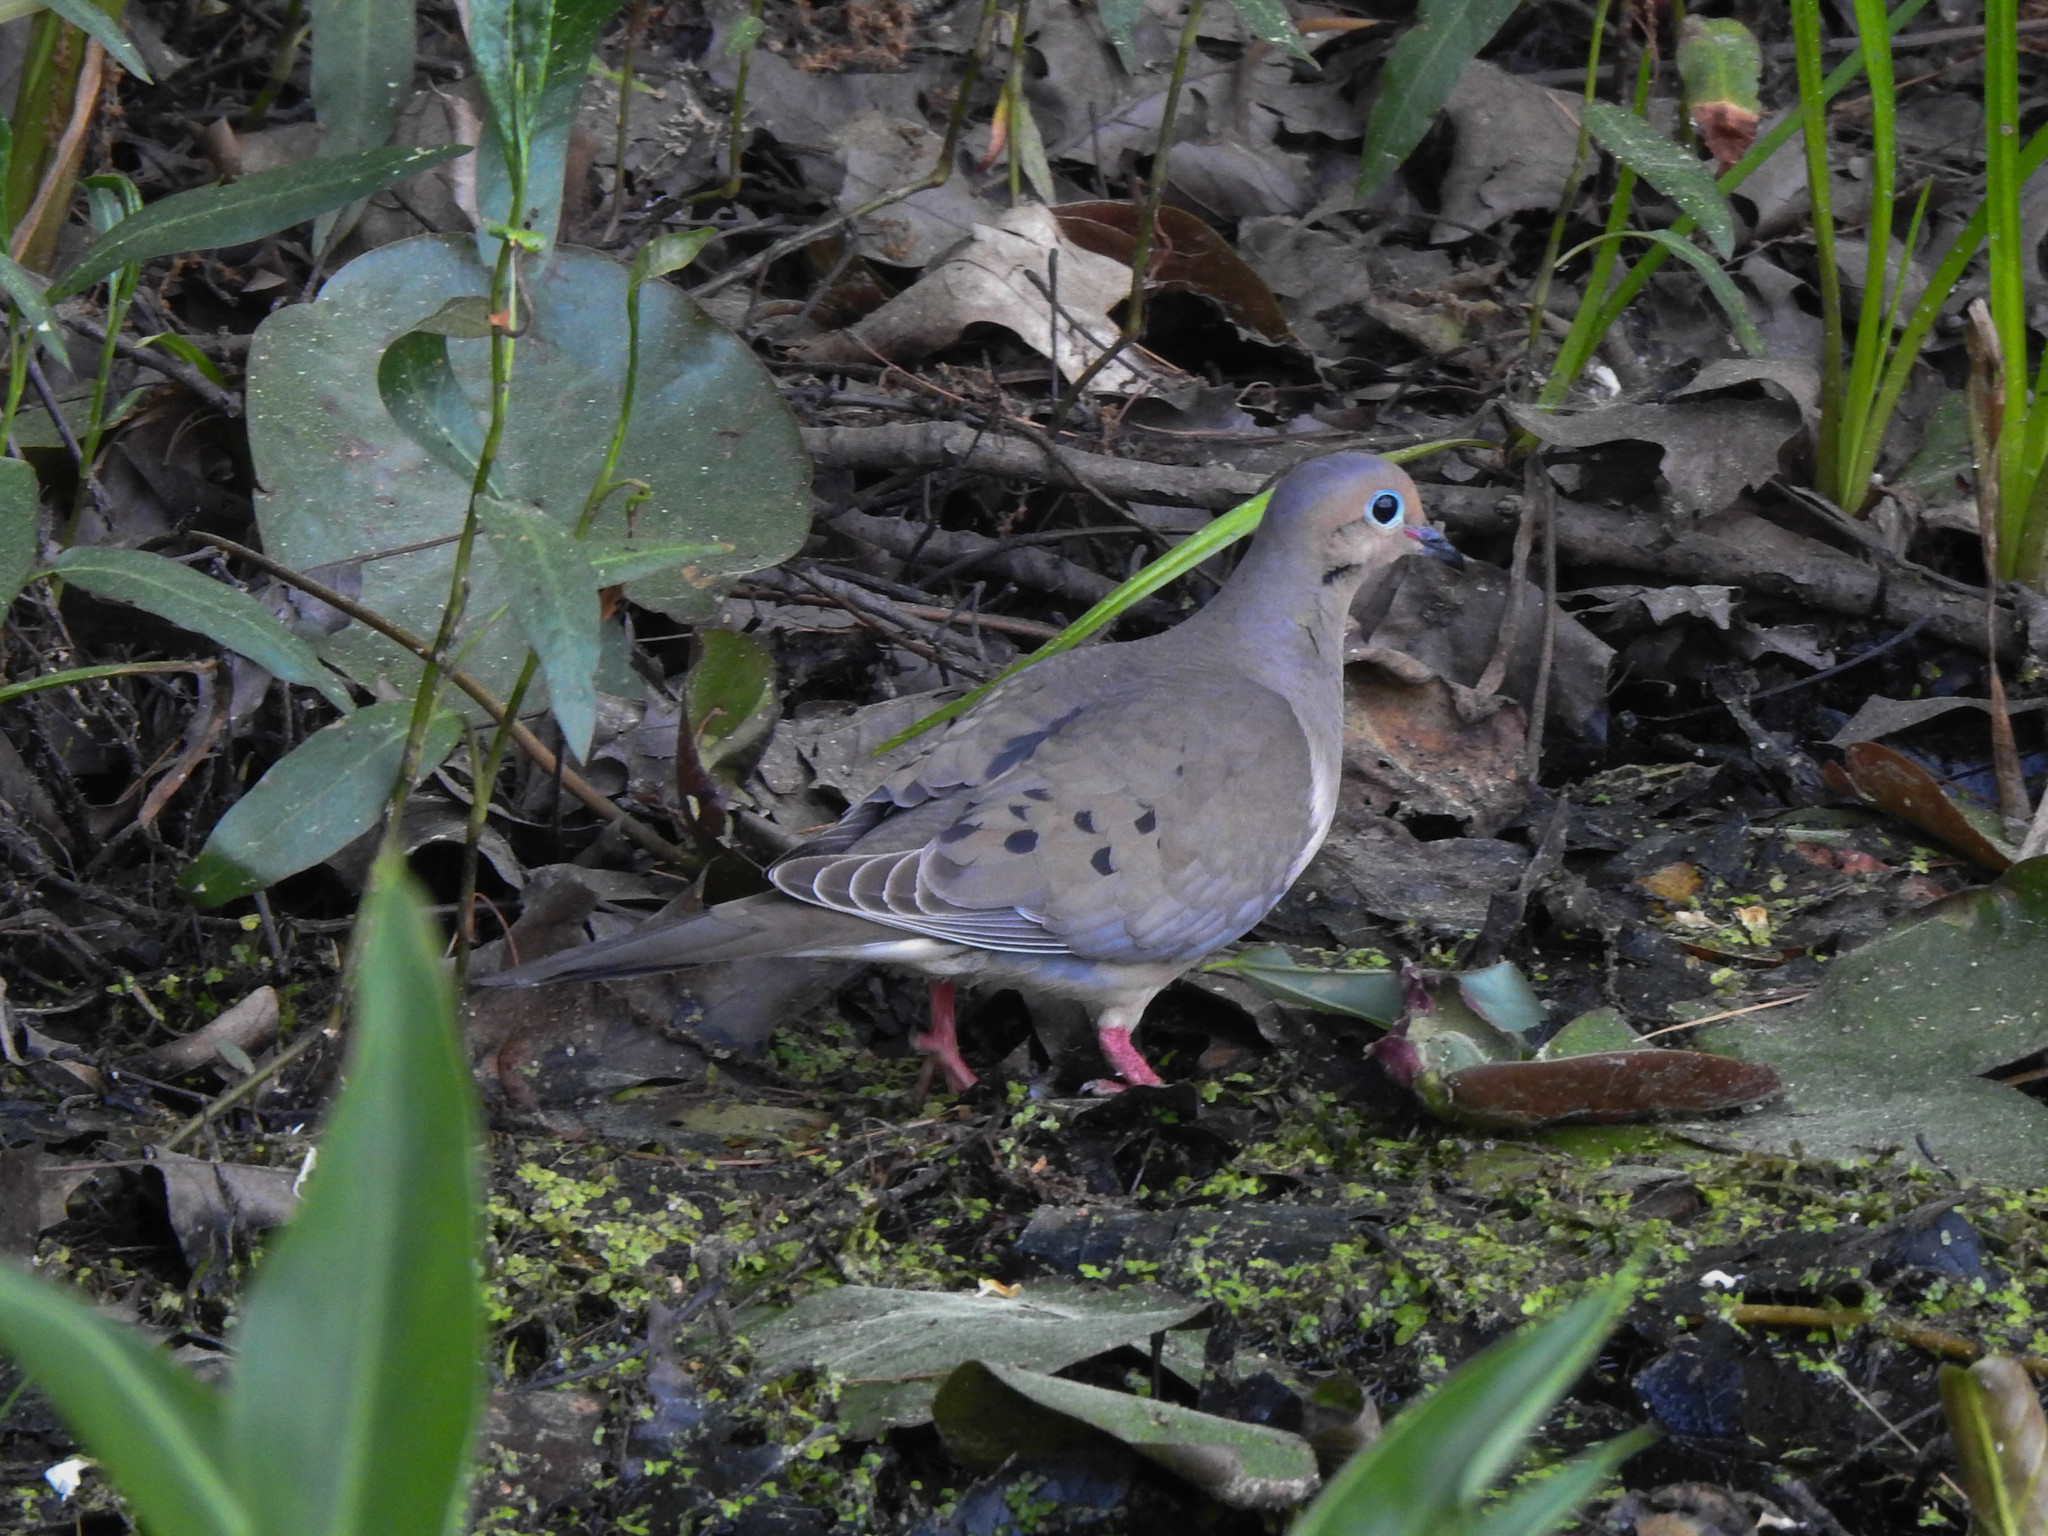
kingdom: Animalia
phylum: Chordata
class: Aves
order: Columbiformes
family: Columbidae
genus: Zenaida
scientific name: Zenaida macroura
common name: Mourning dove
